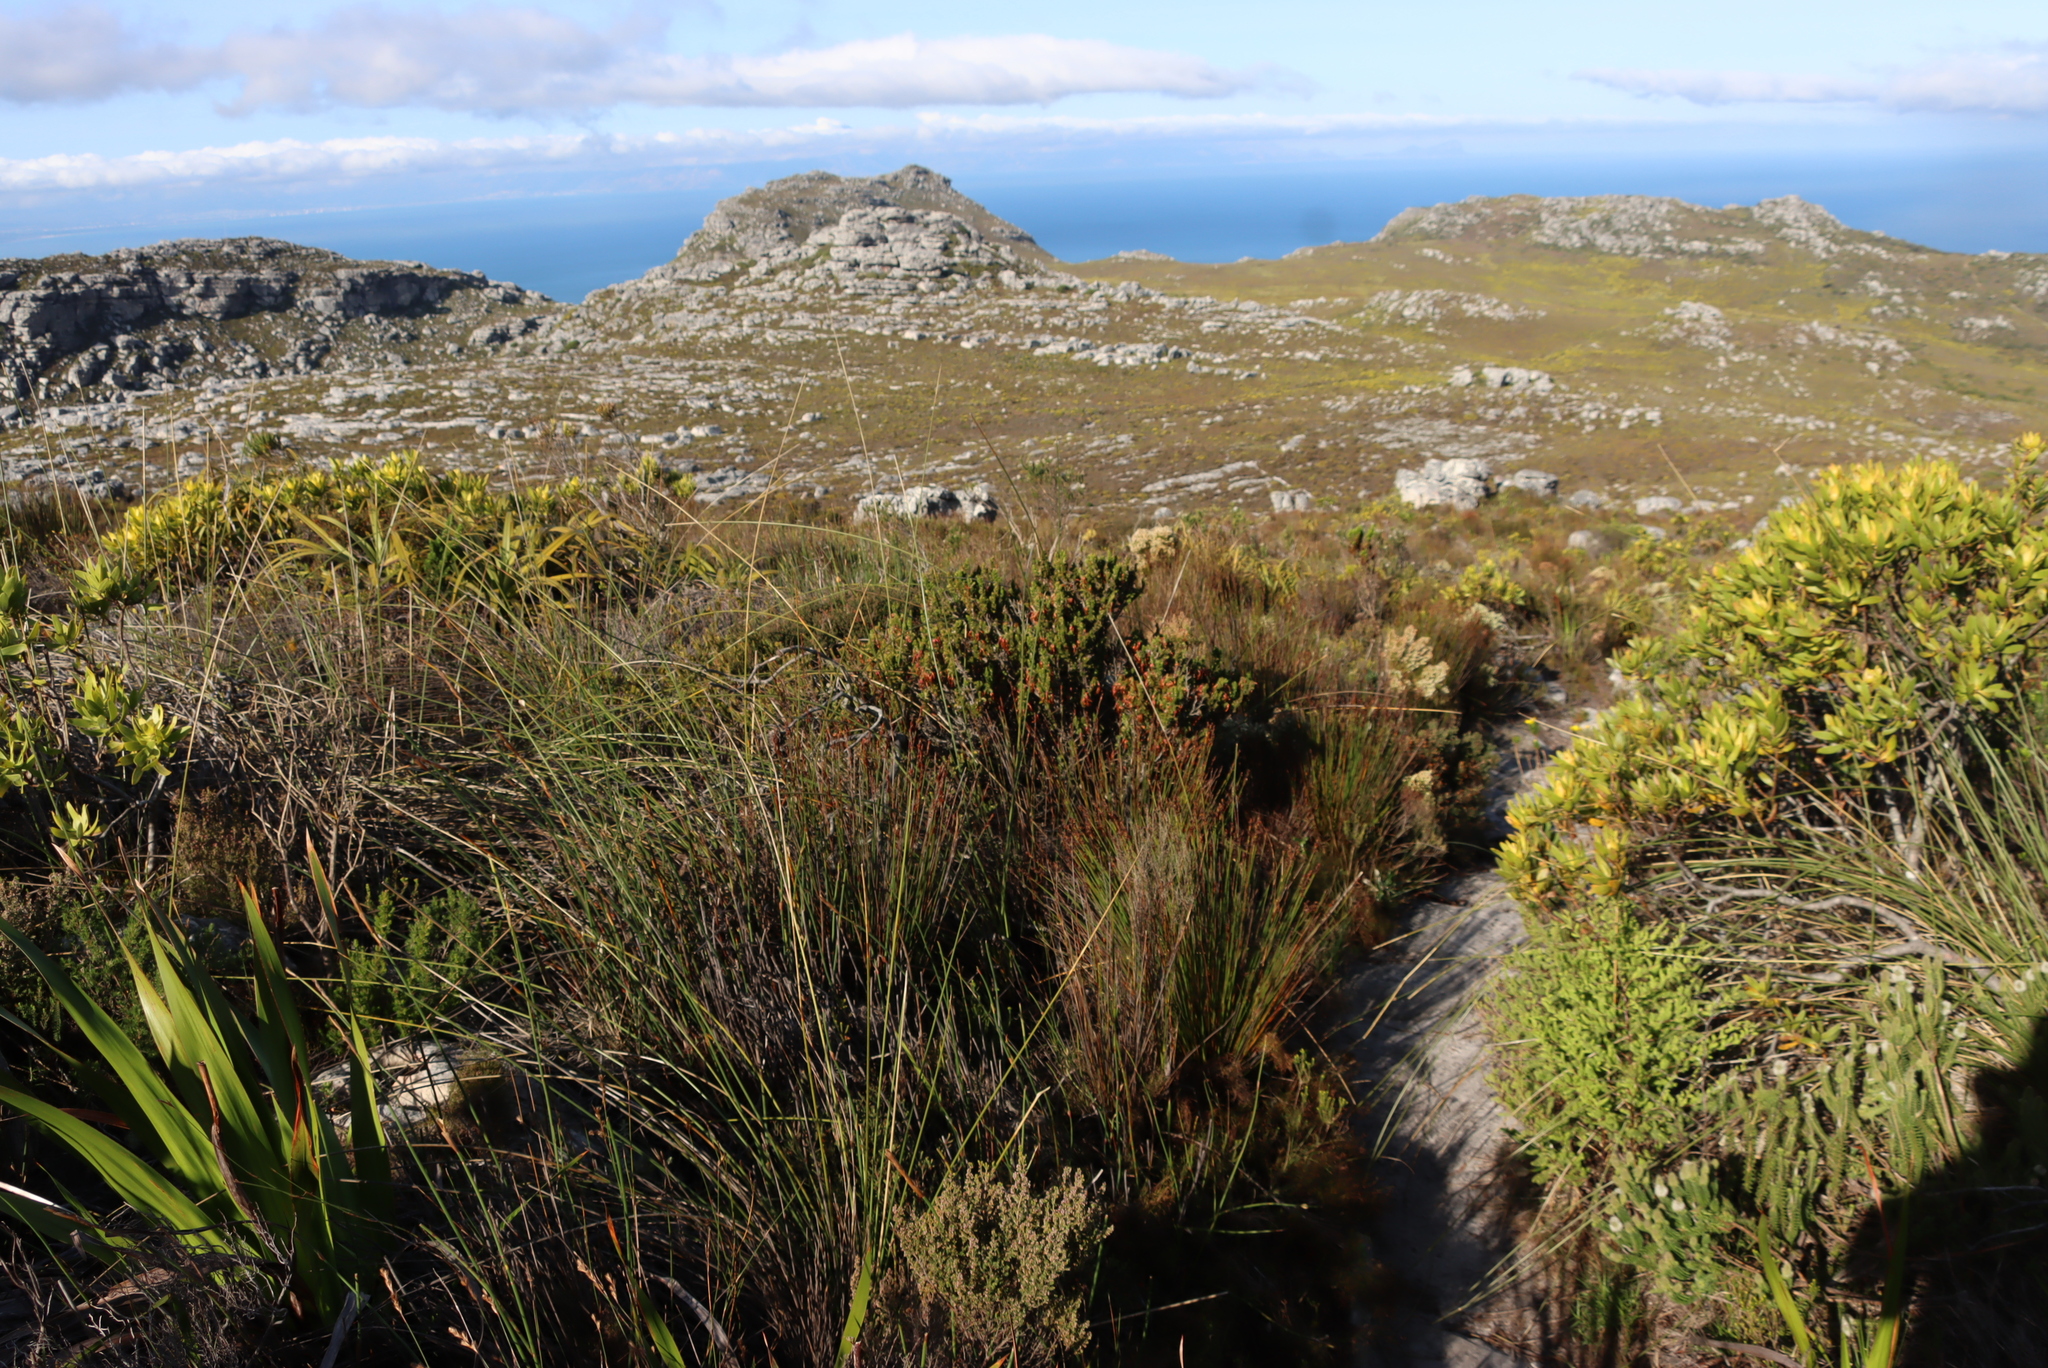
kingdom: Plantae
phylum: Tracheophyta
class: Magnoliopsida
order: Ericales
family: Ericaceae
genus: Erica
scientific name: Erica coccinea
